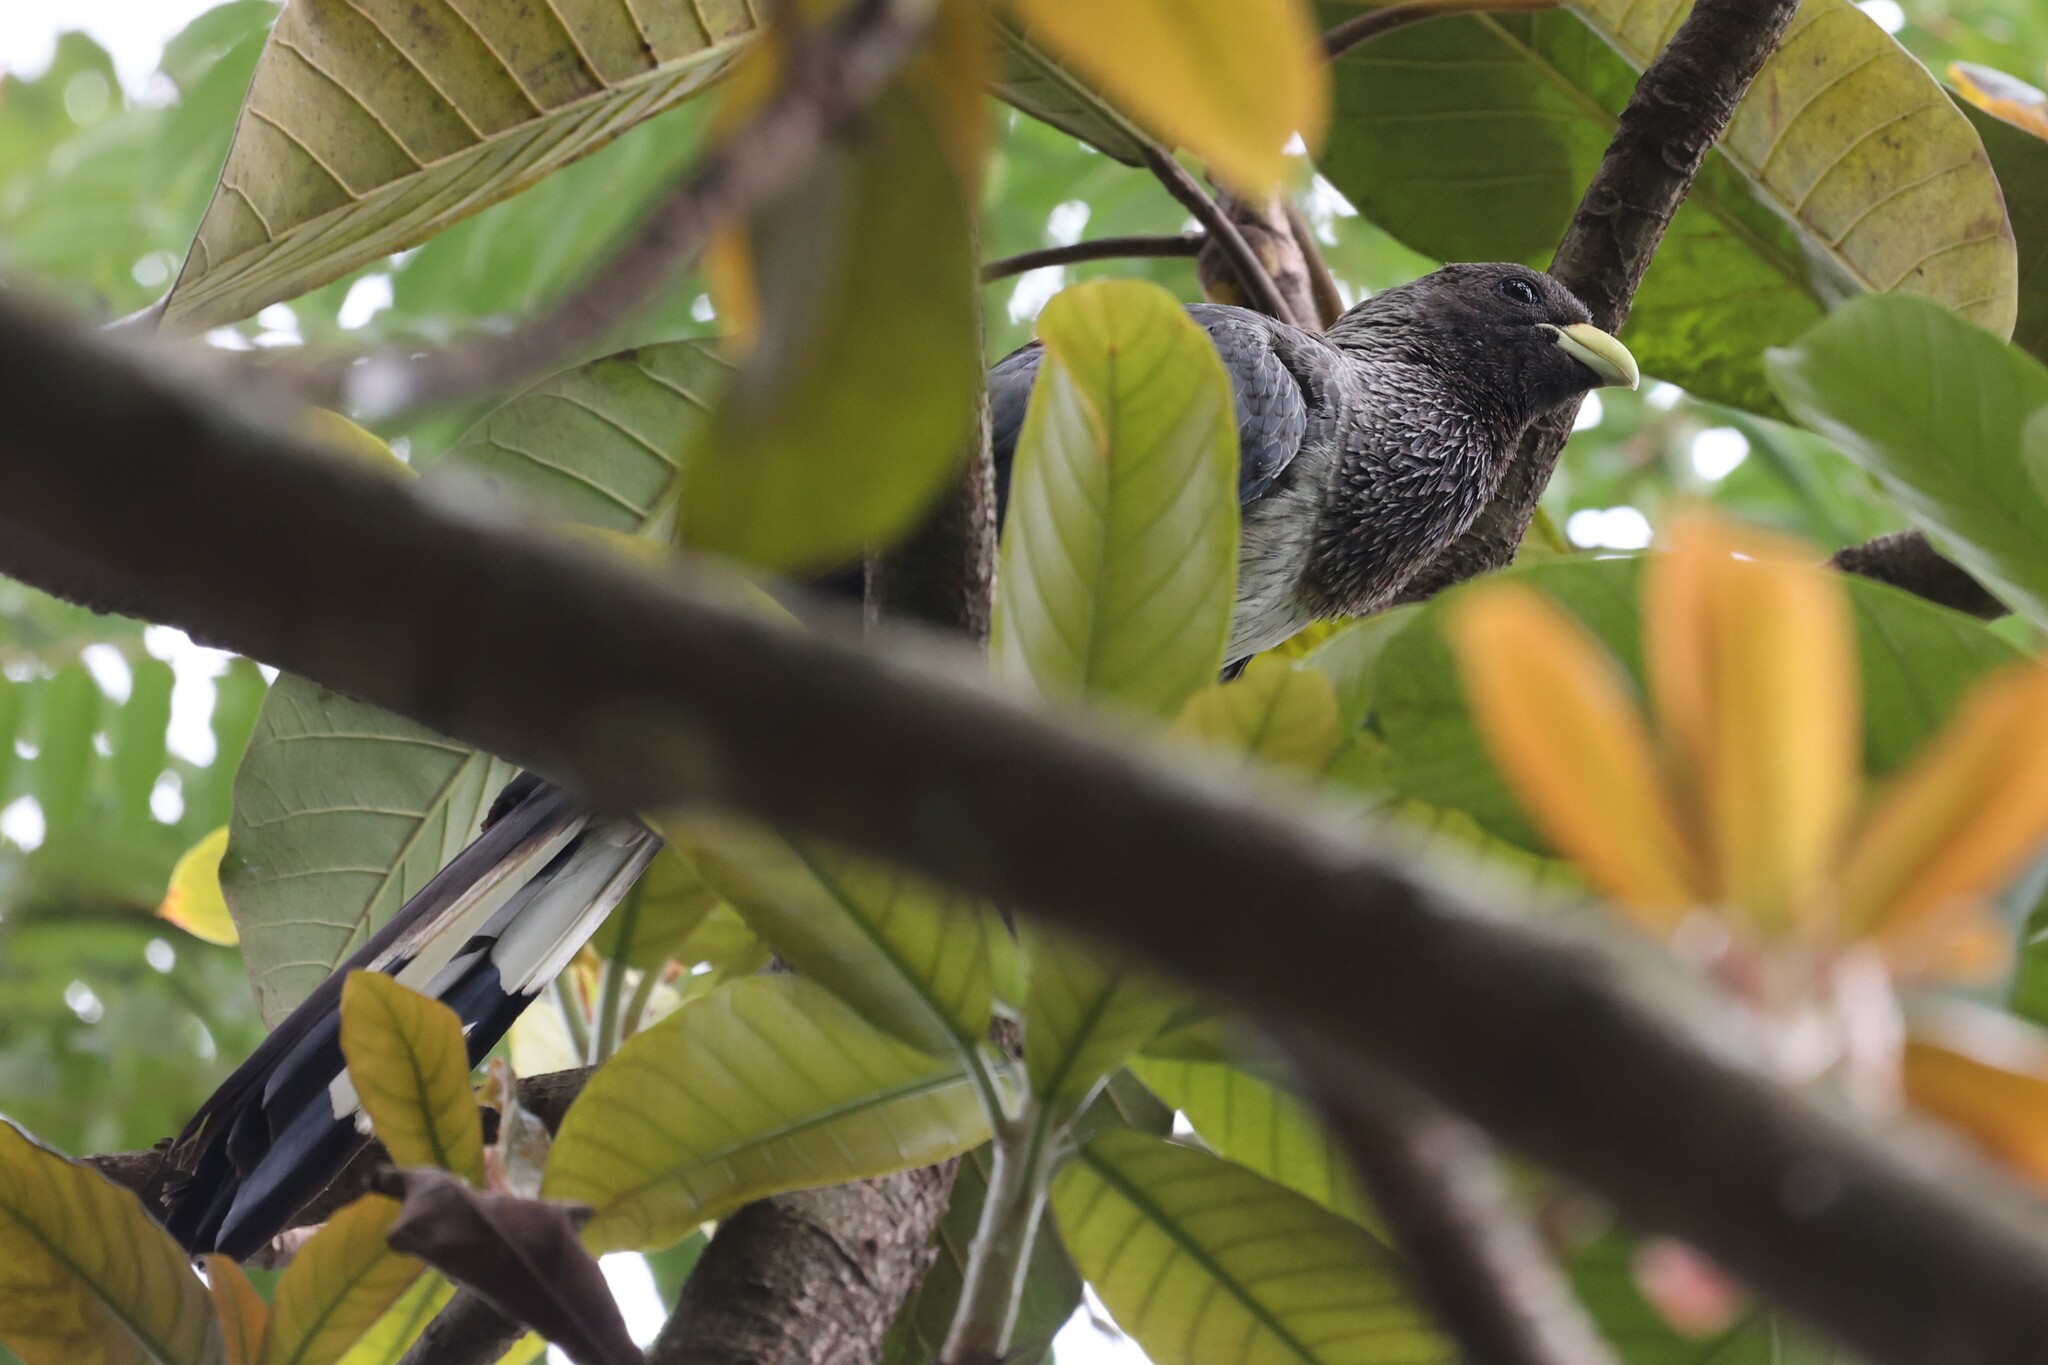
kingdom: Animalia
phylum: Chordata
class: Aves
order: Musophagiformes
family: Musophagidae
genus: Crinifer
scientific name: Crinifer zonurus
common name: Eastern plantain-eater
